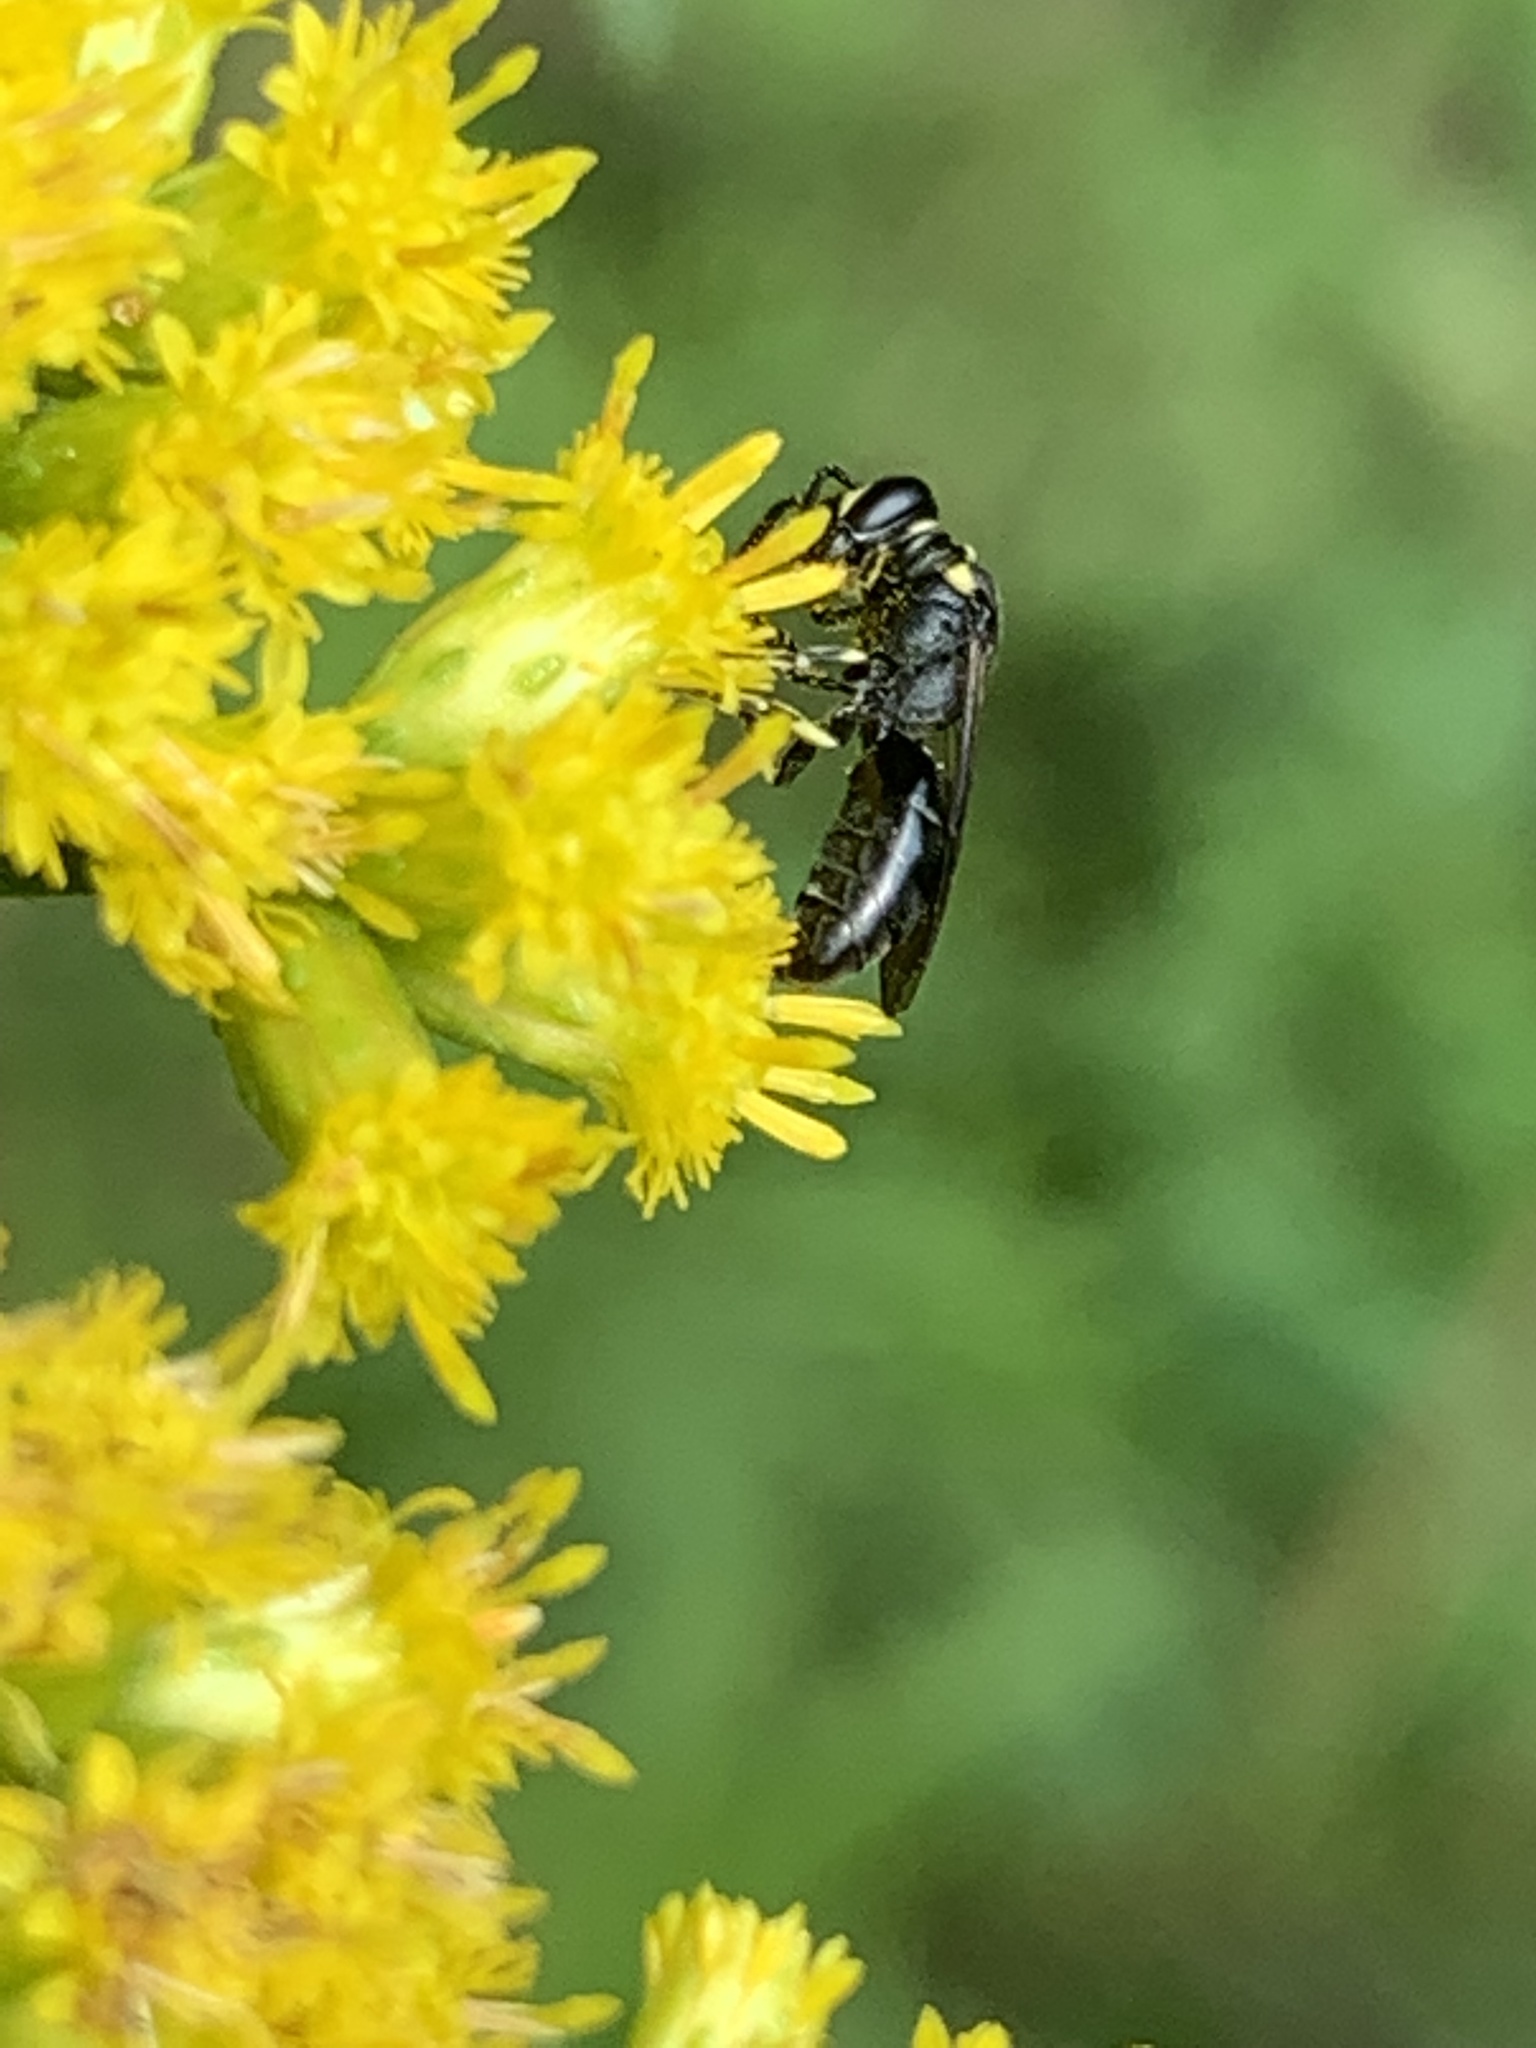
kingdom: Animalia
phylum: Arthropoda
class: Insecta
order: Hymenoptera
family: Colletidae
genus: Hylaeus
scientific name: Hylaeus modestus
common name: Yellow-faced bee
